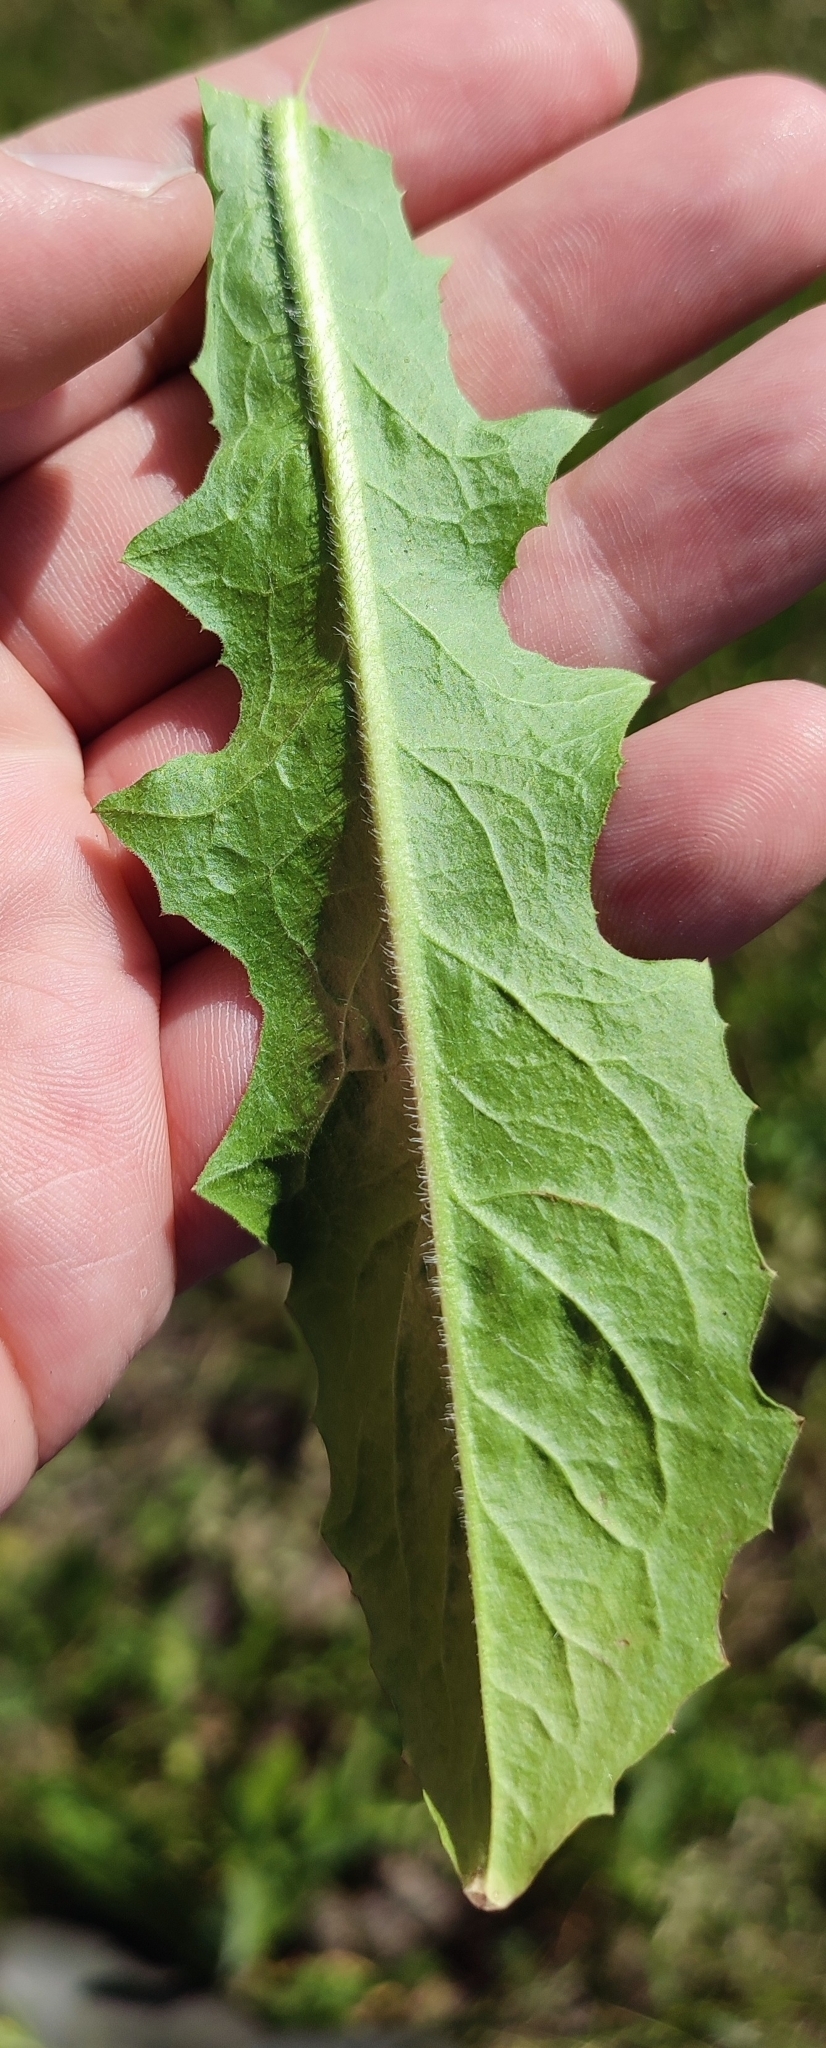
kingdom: Plantae
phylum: Tracheophyta
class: Magnoliopsida
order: Asterales
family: Asteraceae
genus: Cichorium
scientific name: Cichorium intybus
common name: Chicory
